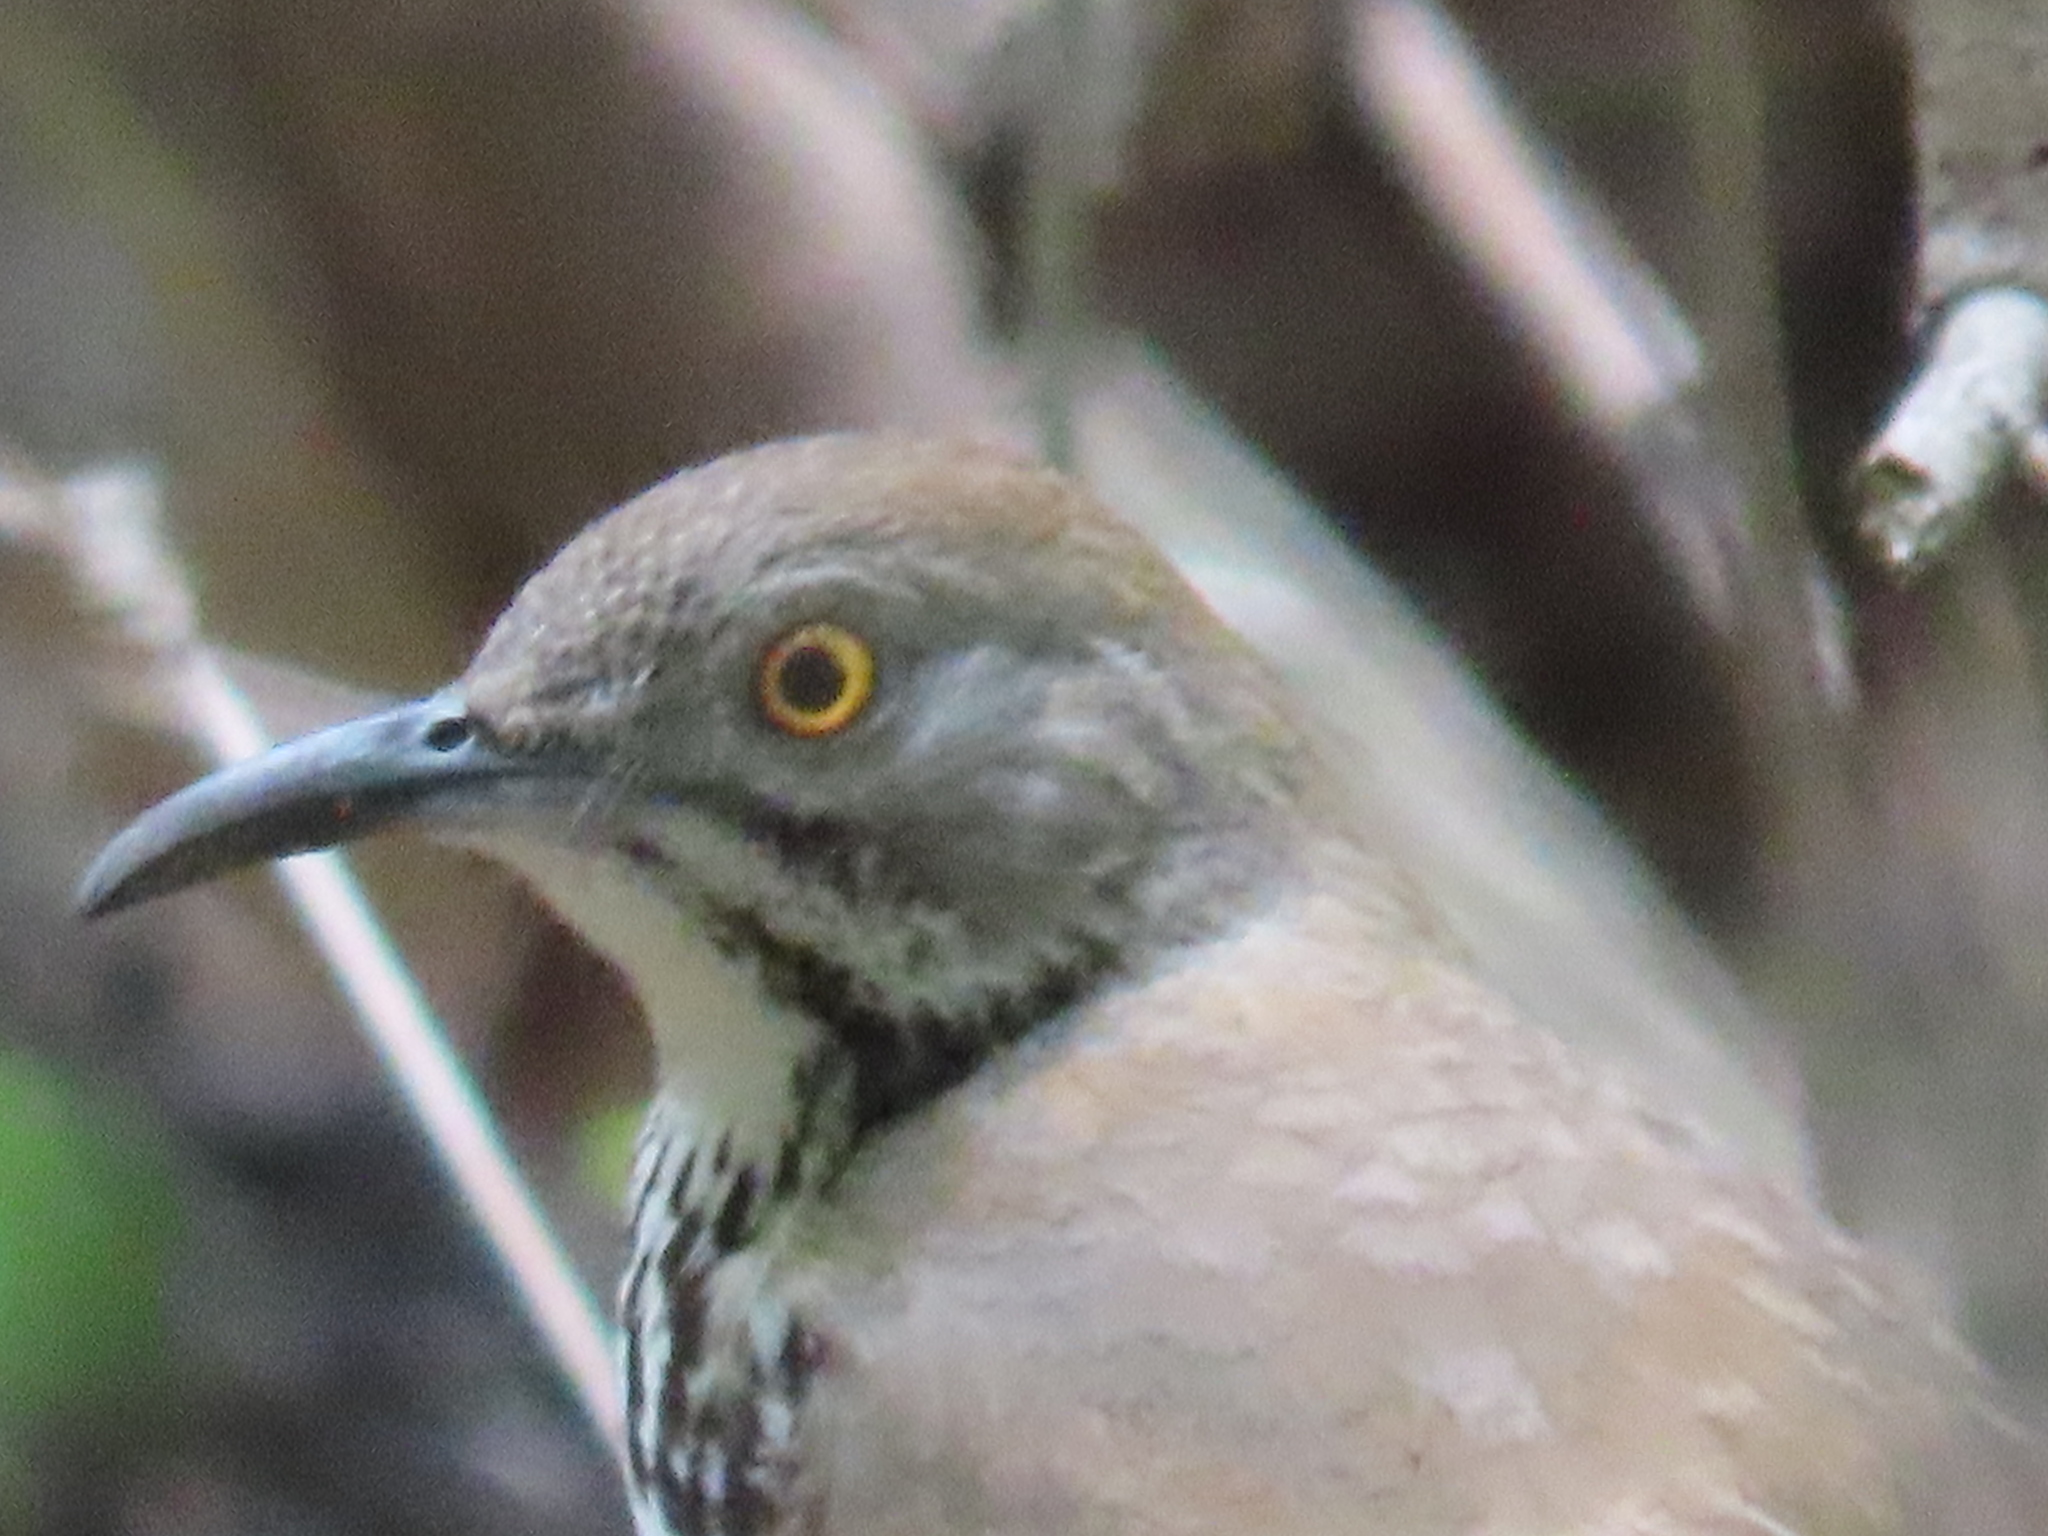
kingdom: Animalia
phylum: Chordata
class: Aves
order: Passeriformes
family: Mimidae
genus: Toxostoma
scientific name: Toxostoma longirostre
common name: Long-billed thrasher
